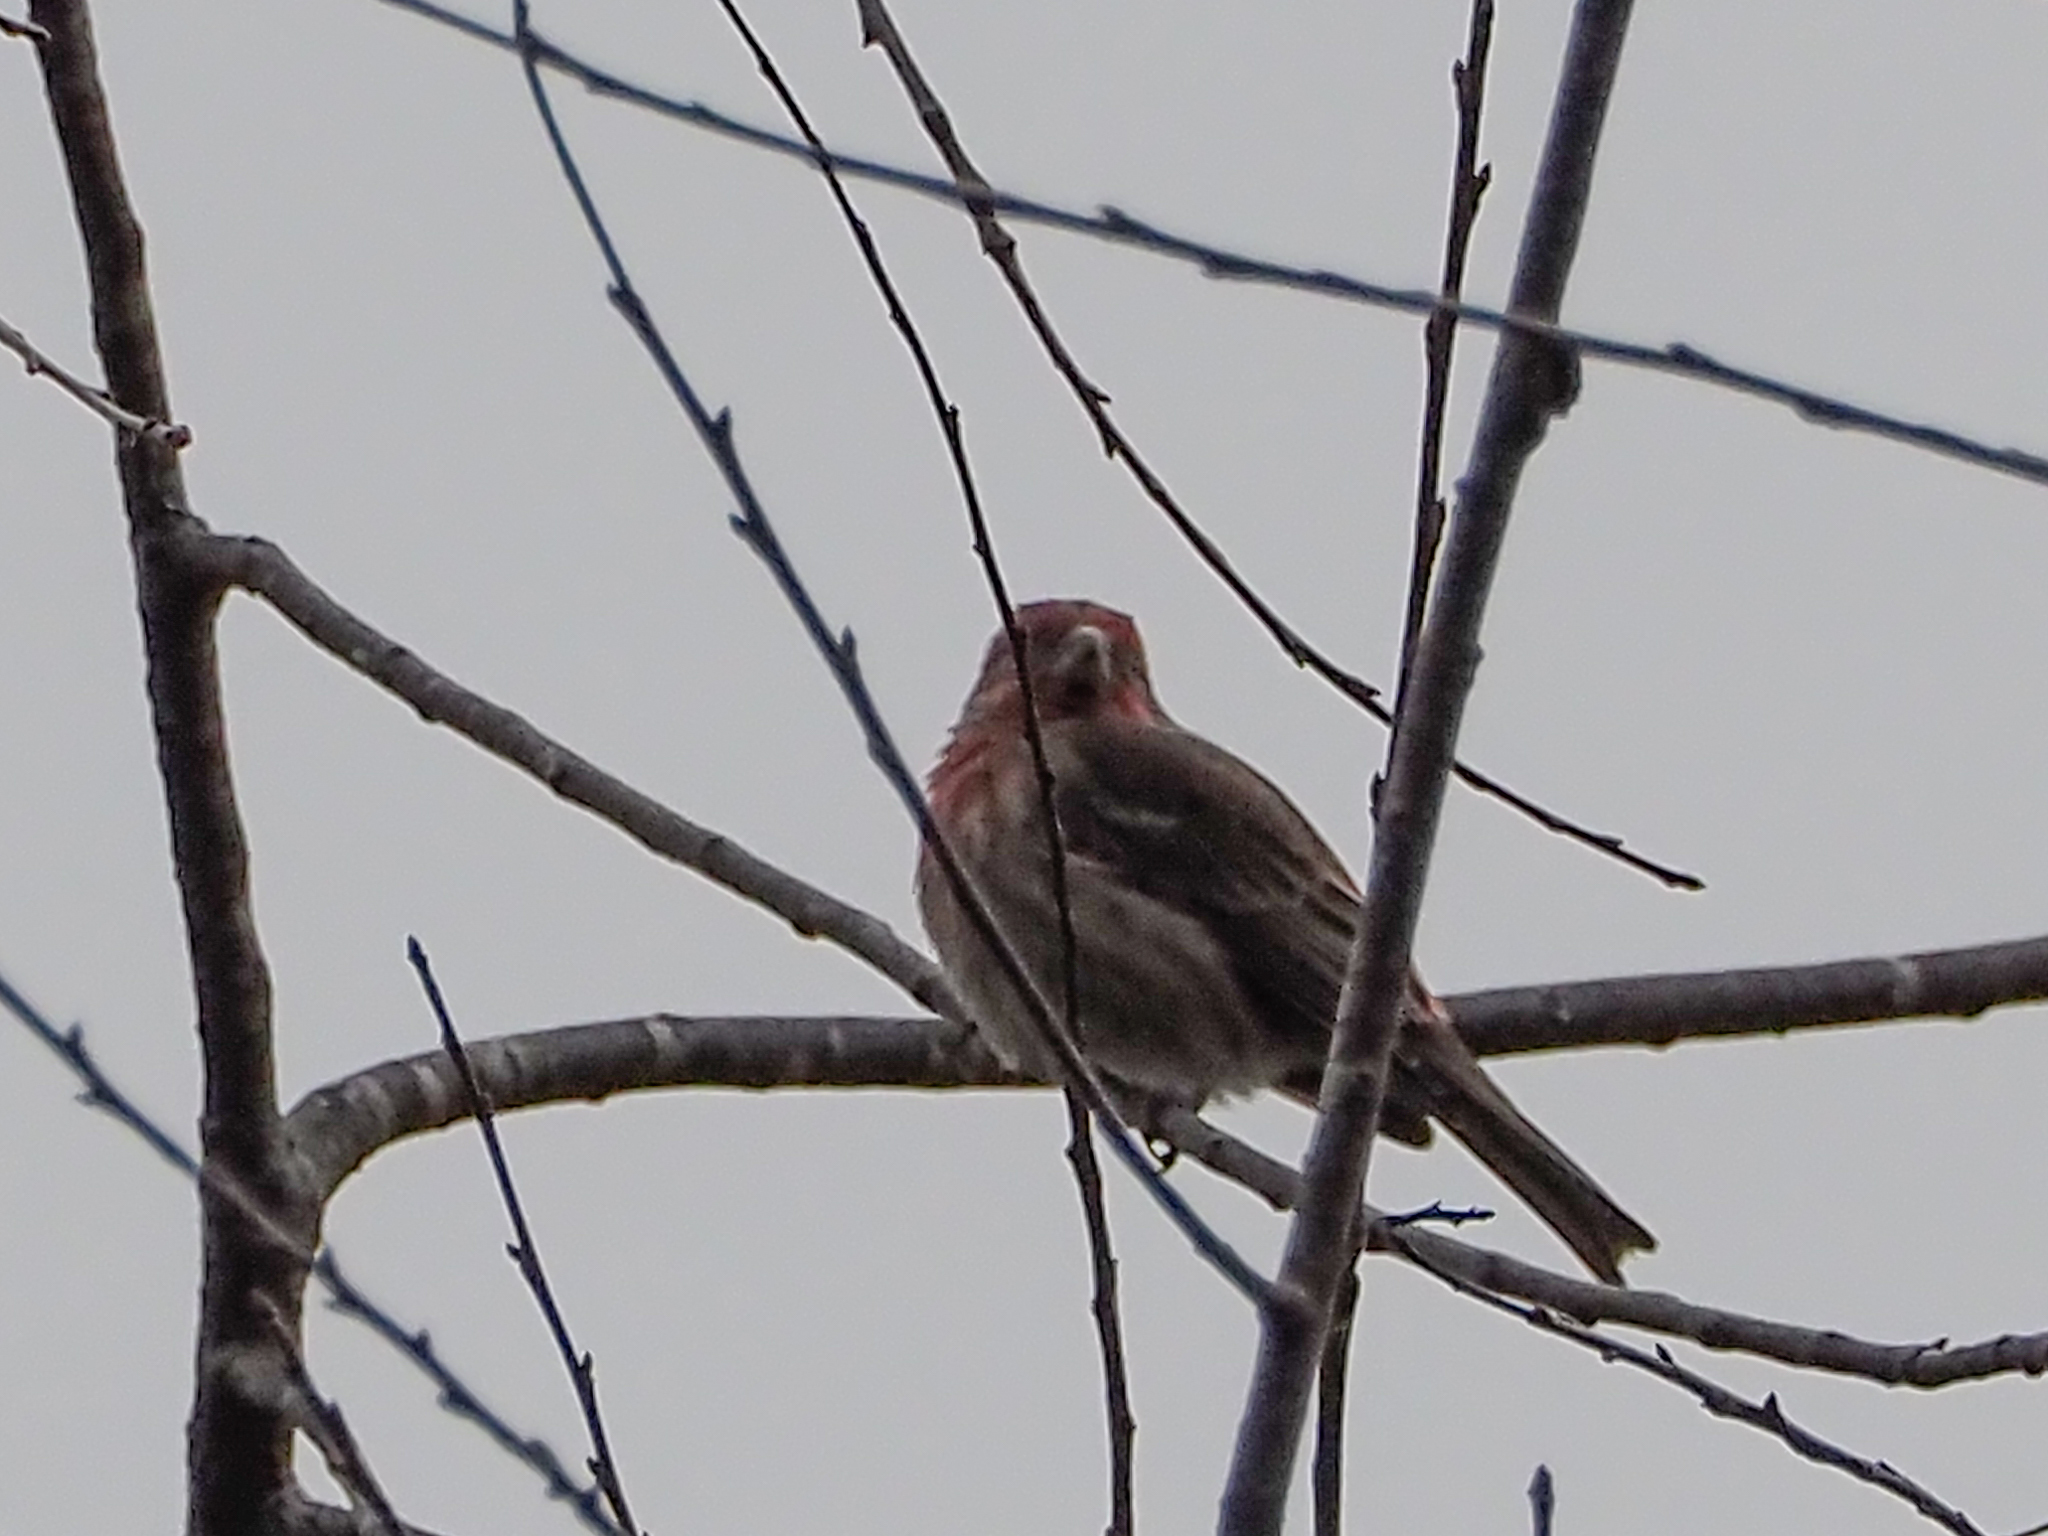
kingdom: Animalia
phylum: Chordata
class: Aves
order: Passeriformes
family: Fringillidae
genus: Haemorhous
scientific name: Haemorhous mexicanus
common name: House finch
